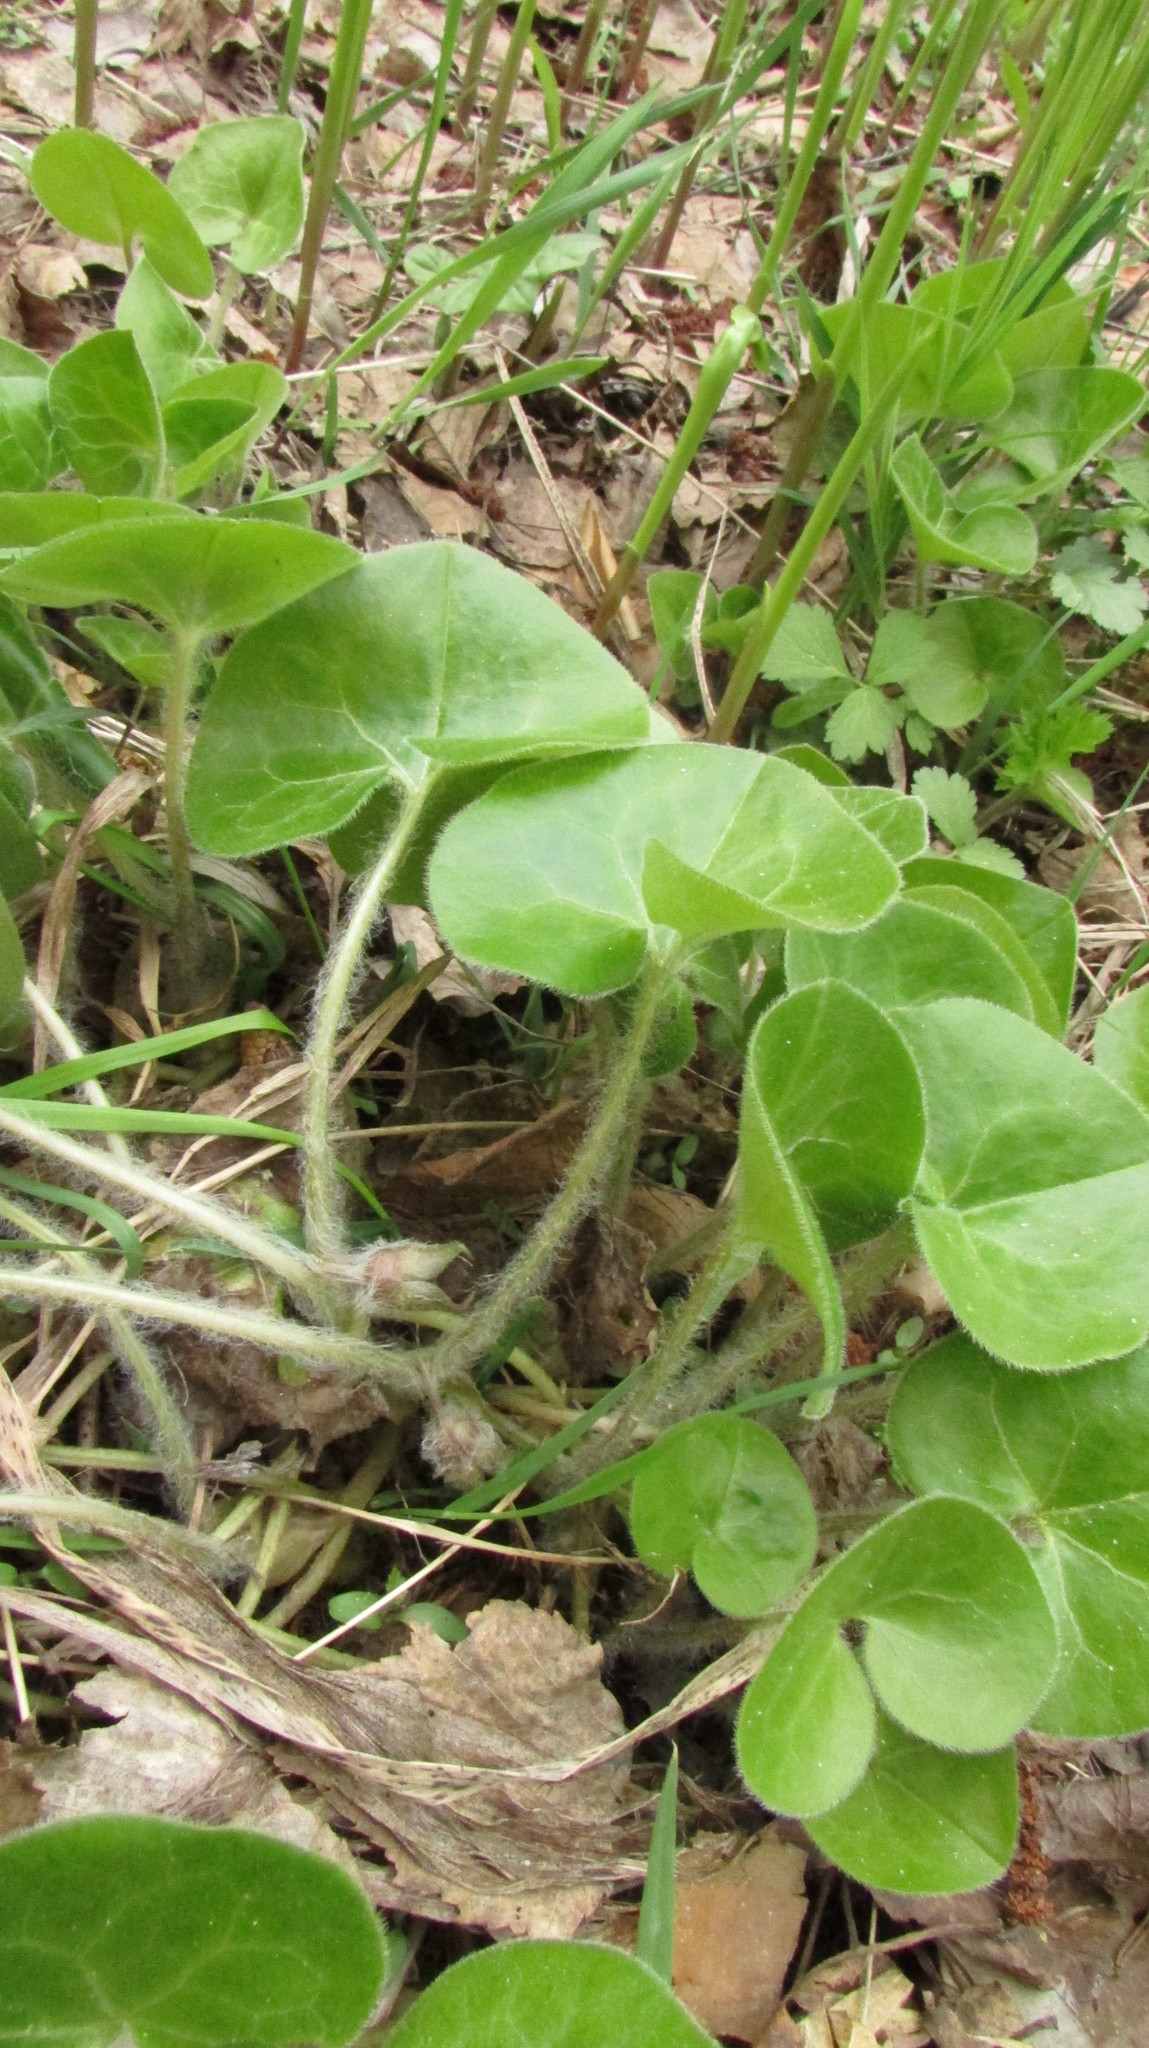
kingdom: Plantae
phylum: Tracheophyta
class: Magnoliopsida
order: Piperales
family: Aristolochiaceae
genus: Asarum
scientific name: Asarum europaeum
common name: Asarabacca
